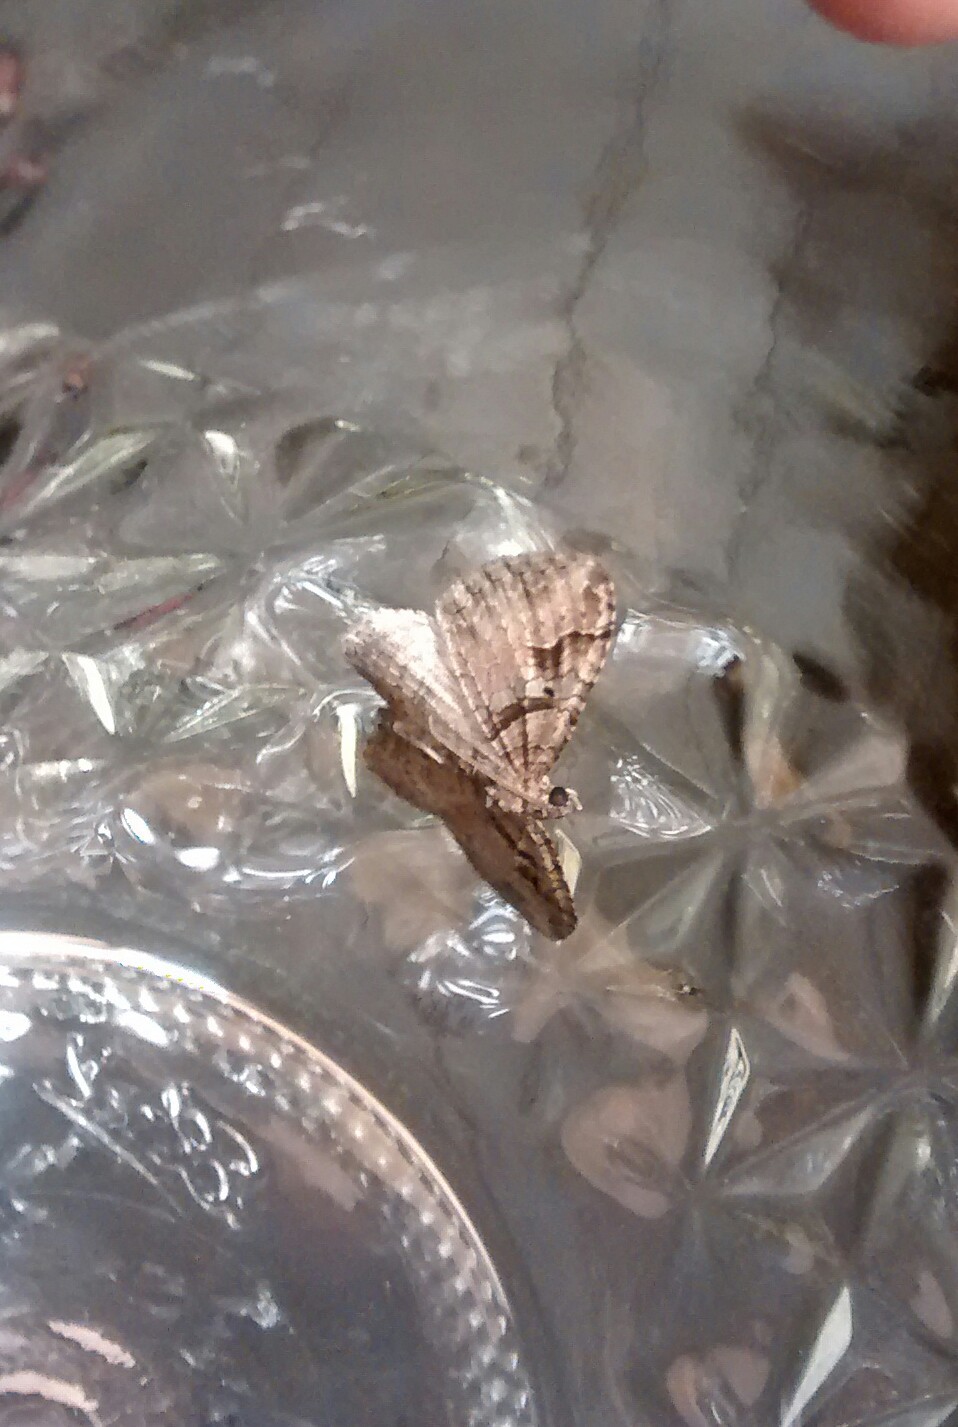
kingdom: Animalia
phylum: Arthropoda
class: Insecta
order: Lepidoptera
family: Geometridae
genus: Costaconvexa
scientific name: Costaconvexa centrostrigaria
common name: Bent-line carpet
